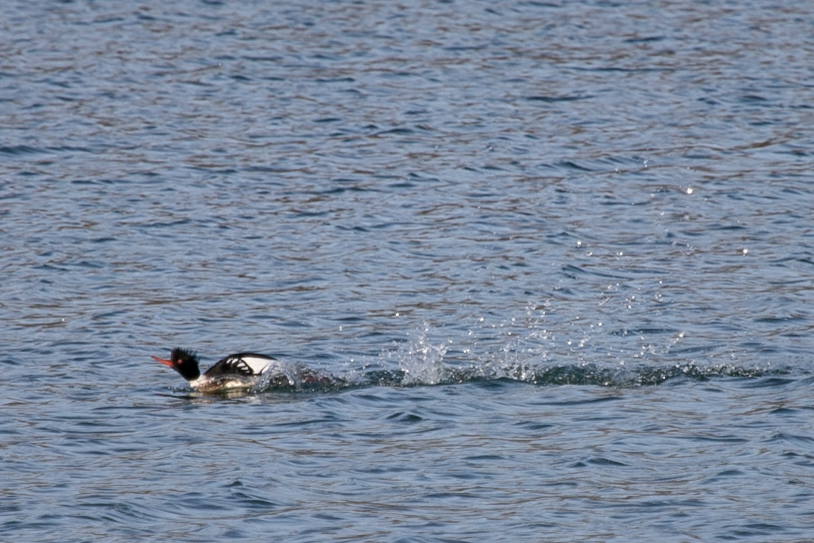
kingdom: Animalia
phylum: Chordata
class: Aves
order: Anseriformes
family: Anatidae
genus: Mergus
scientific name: Mergus serrator
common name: Red-breasted merganser
